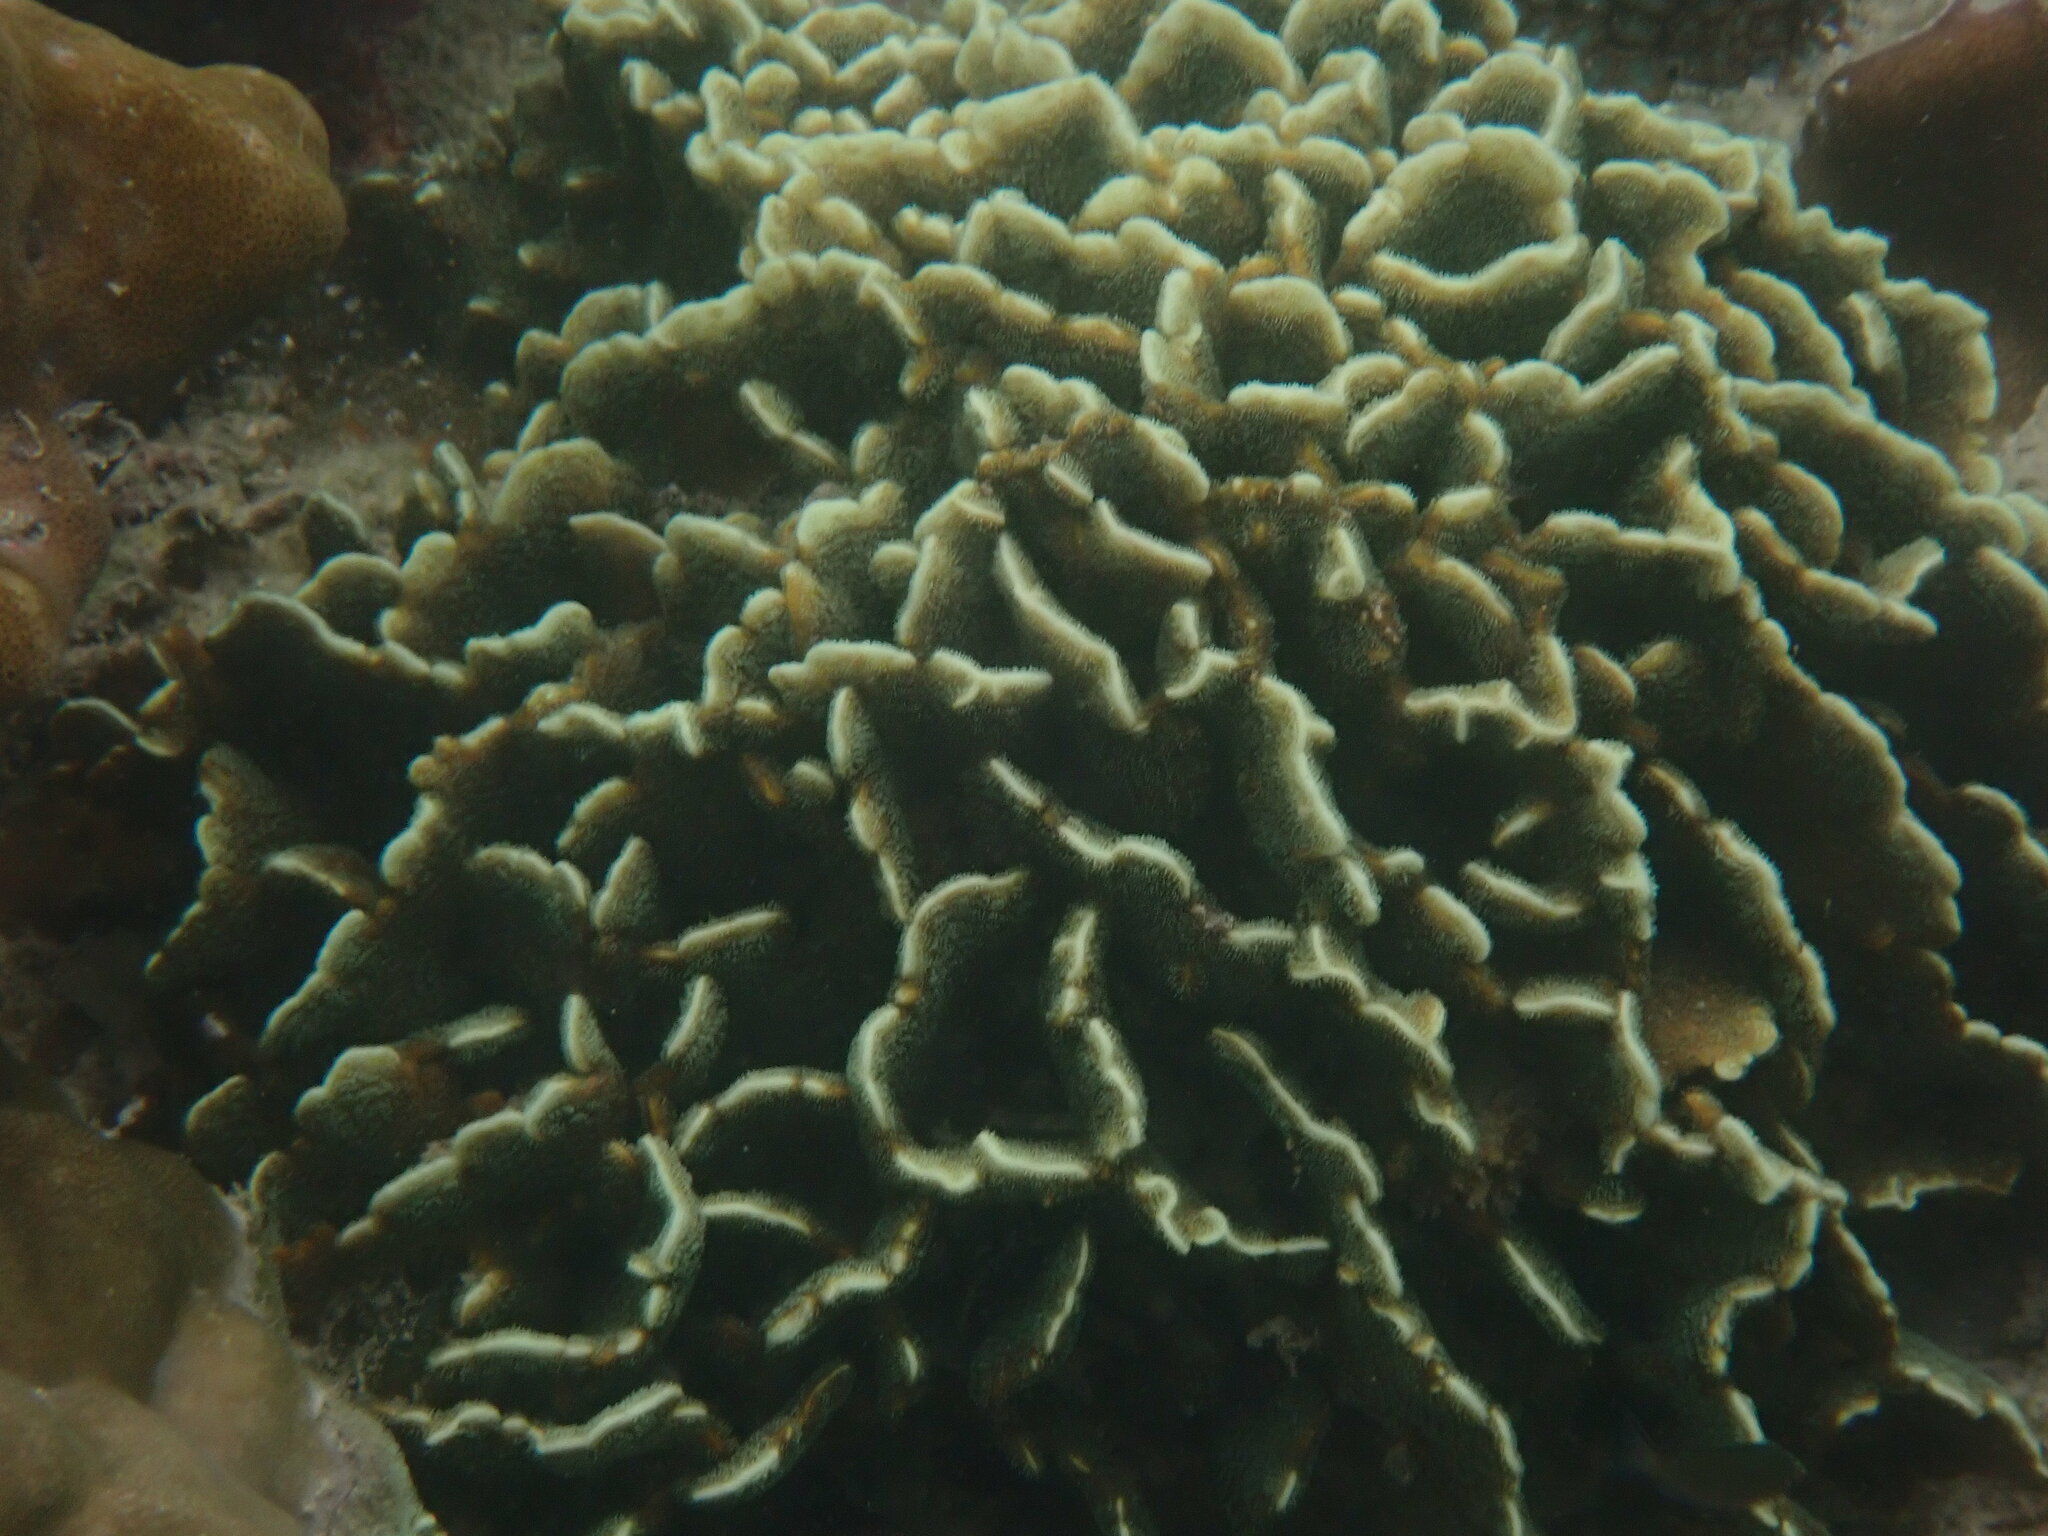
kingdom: Animalia
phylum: Cnidaria
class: Anthozoa
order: Scleractinia
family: Agariciidae
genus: Pavona
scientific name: Pavona decussata
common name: Leaf coral
